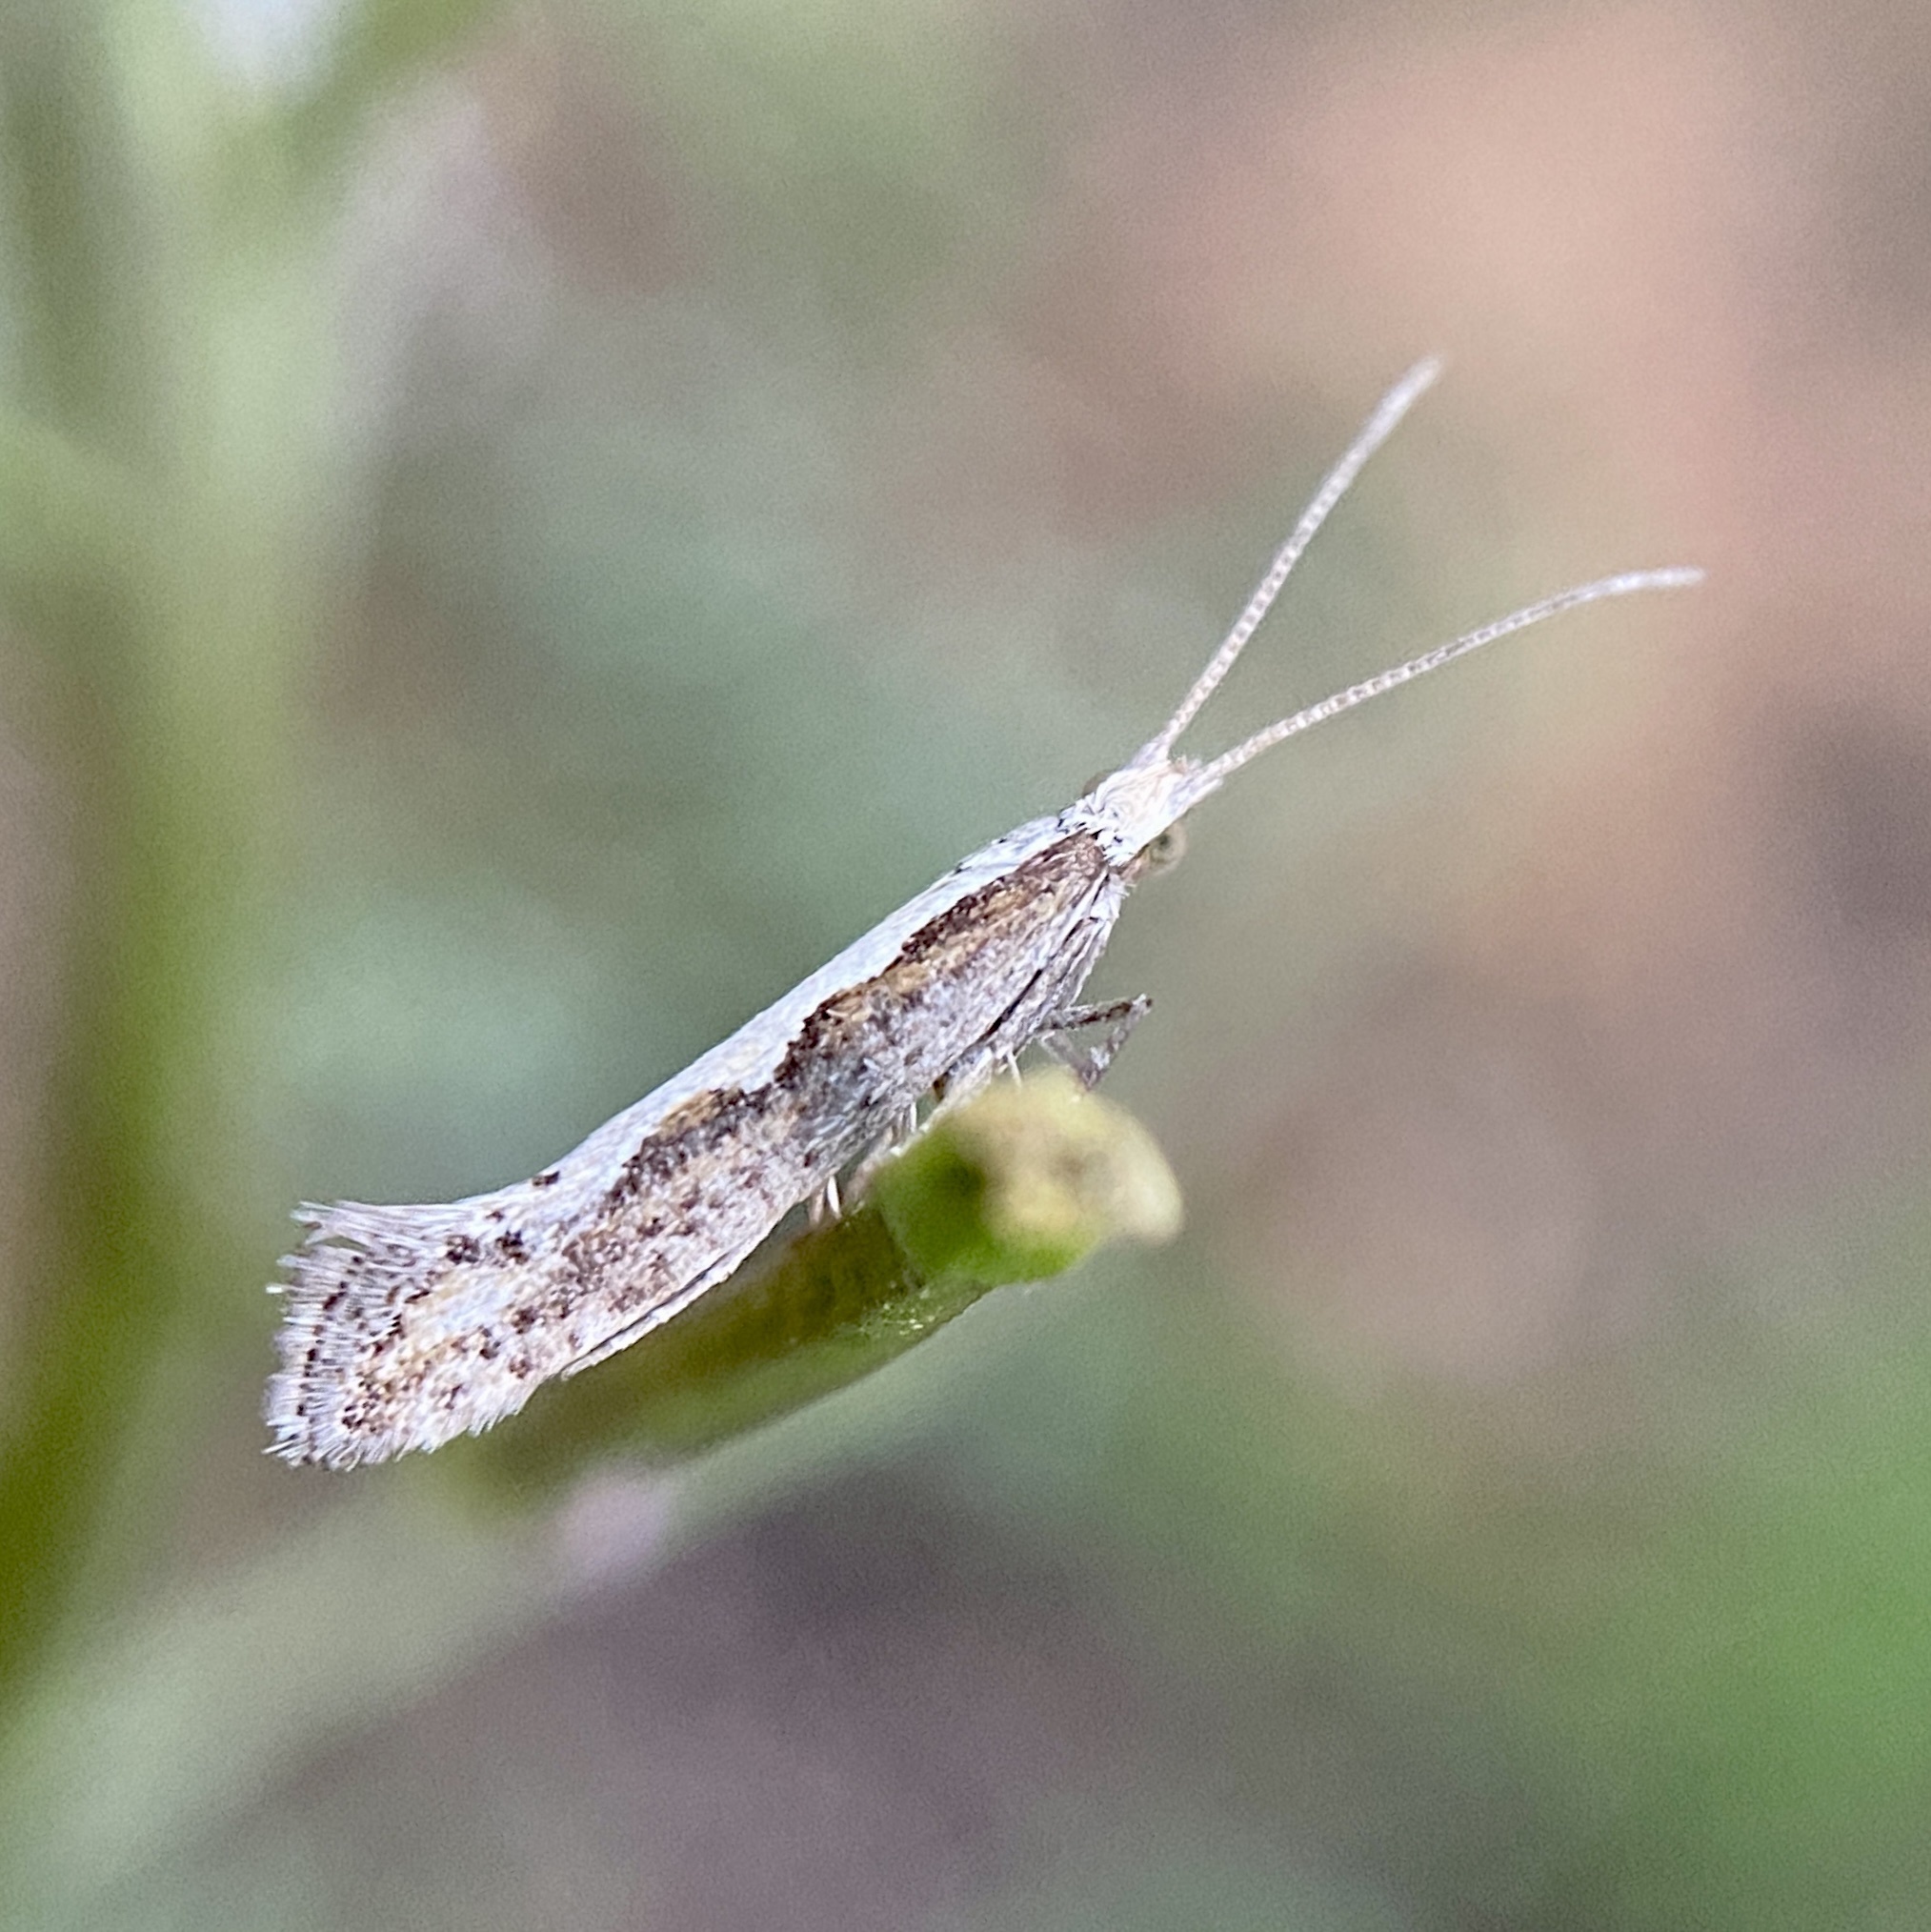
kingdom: Animalia
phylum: Arthropoda
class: Insecta
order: Lepidoptera
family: Plutellidae
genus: Plutella
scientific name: Plutella xylostella
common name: Diamond-back moth
